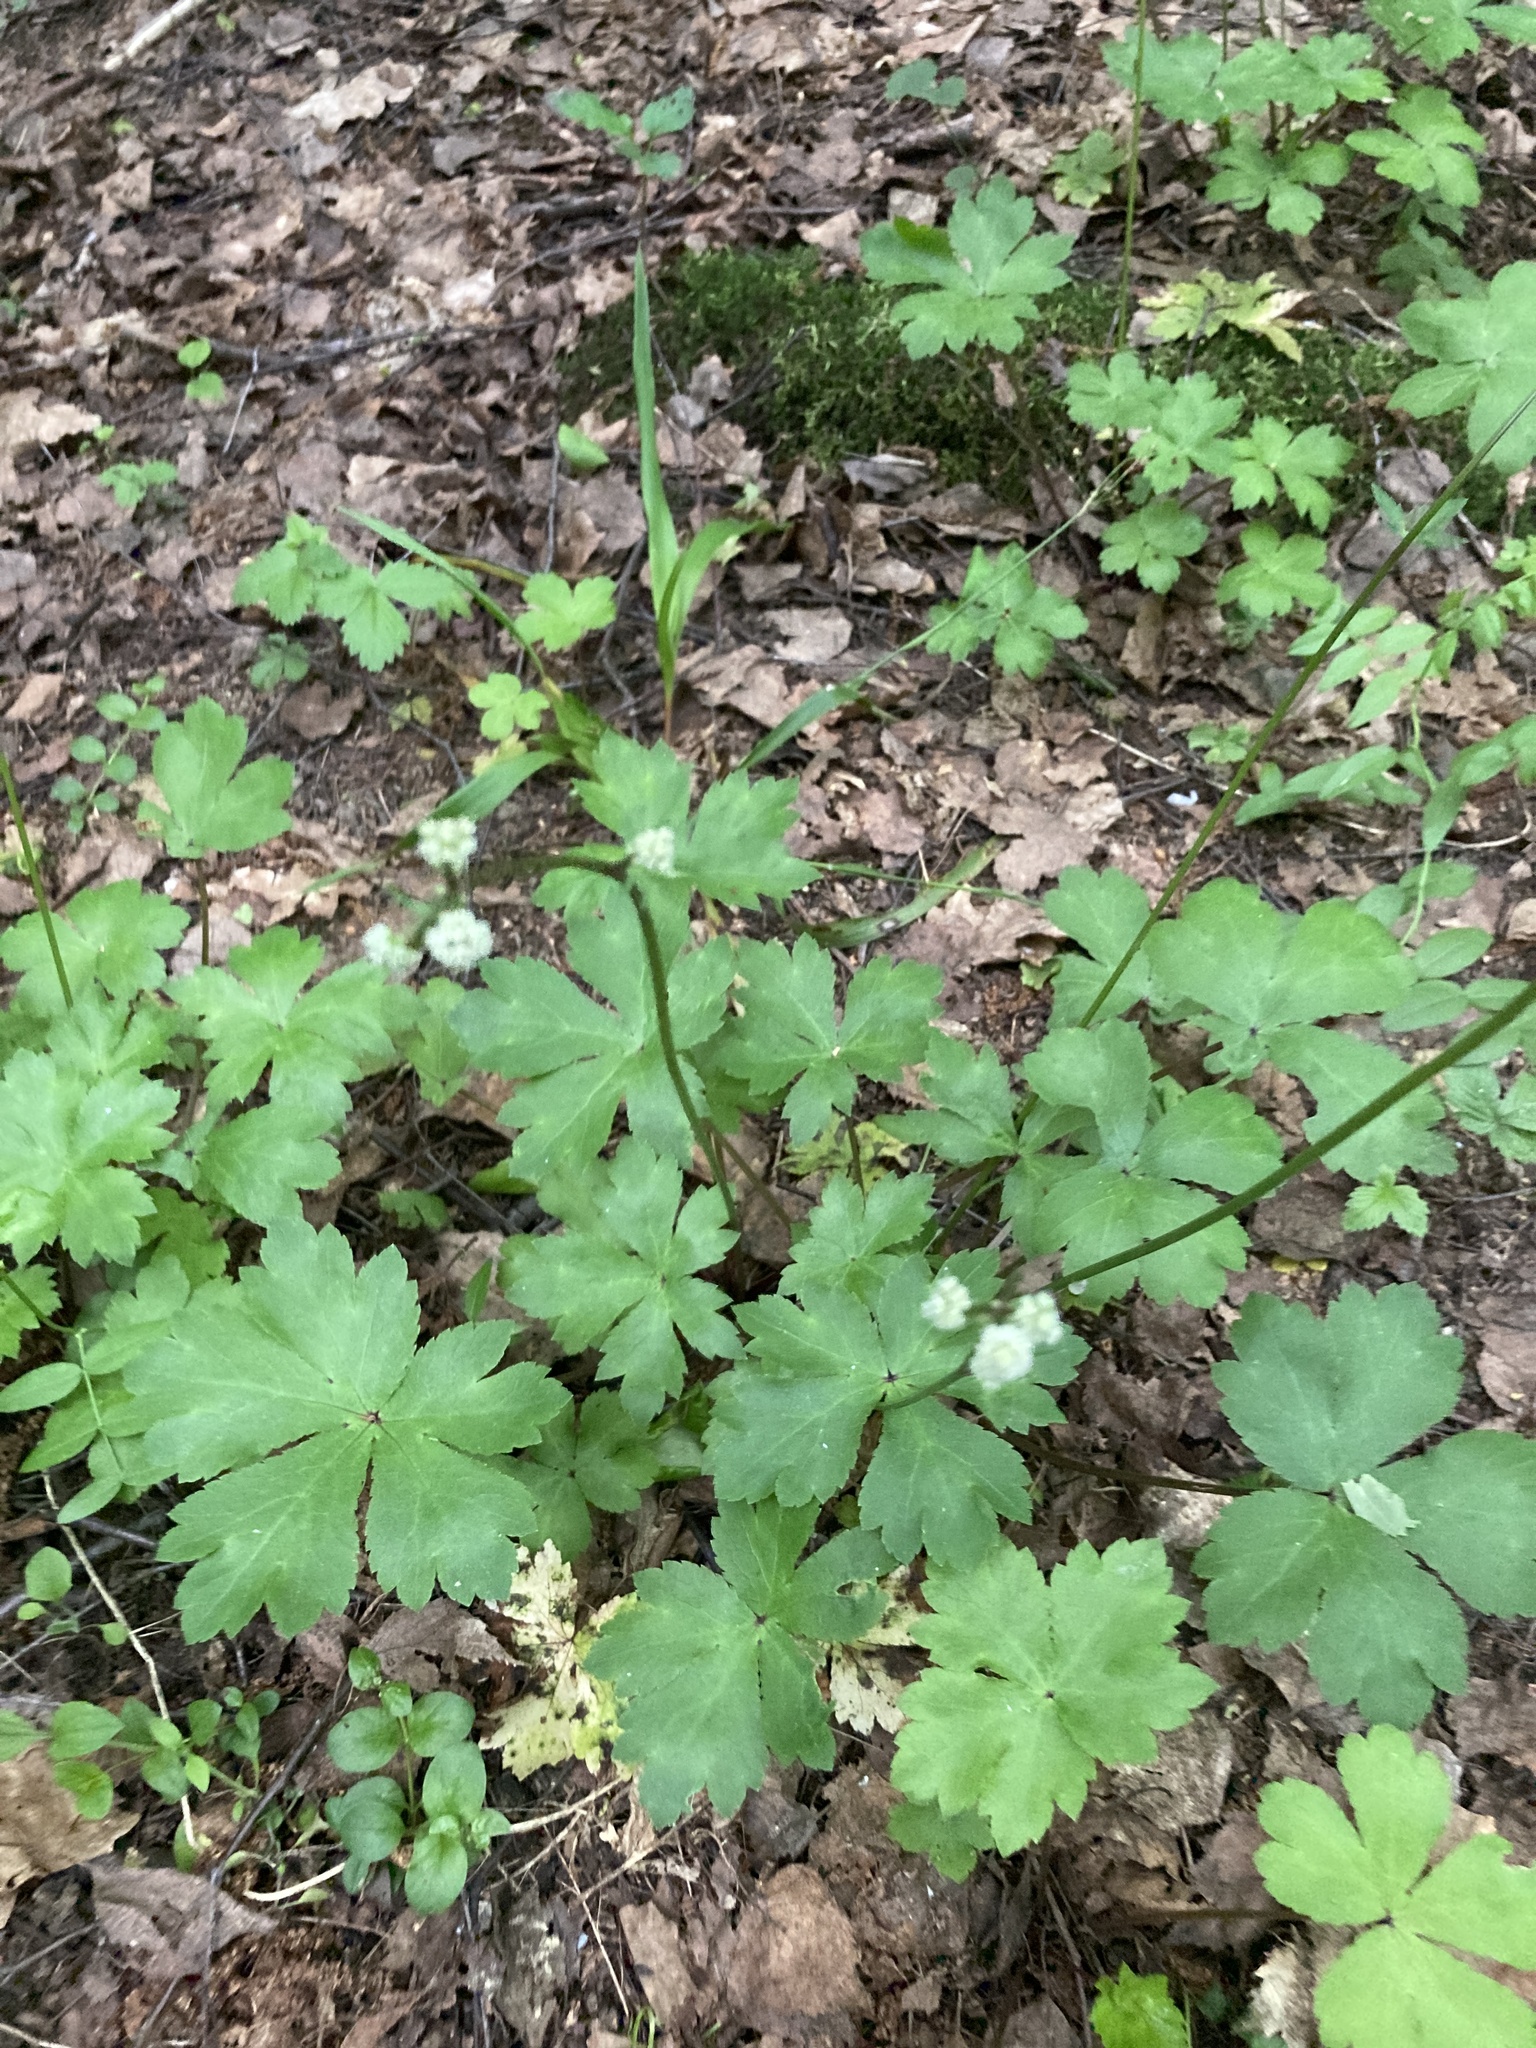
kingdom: Plantae
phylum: Tracheophyta
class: Magnoliopsida
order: Apiales
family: Apiaceae
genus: Sanicula
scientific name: Sanicula europaea
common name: Sanicle
